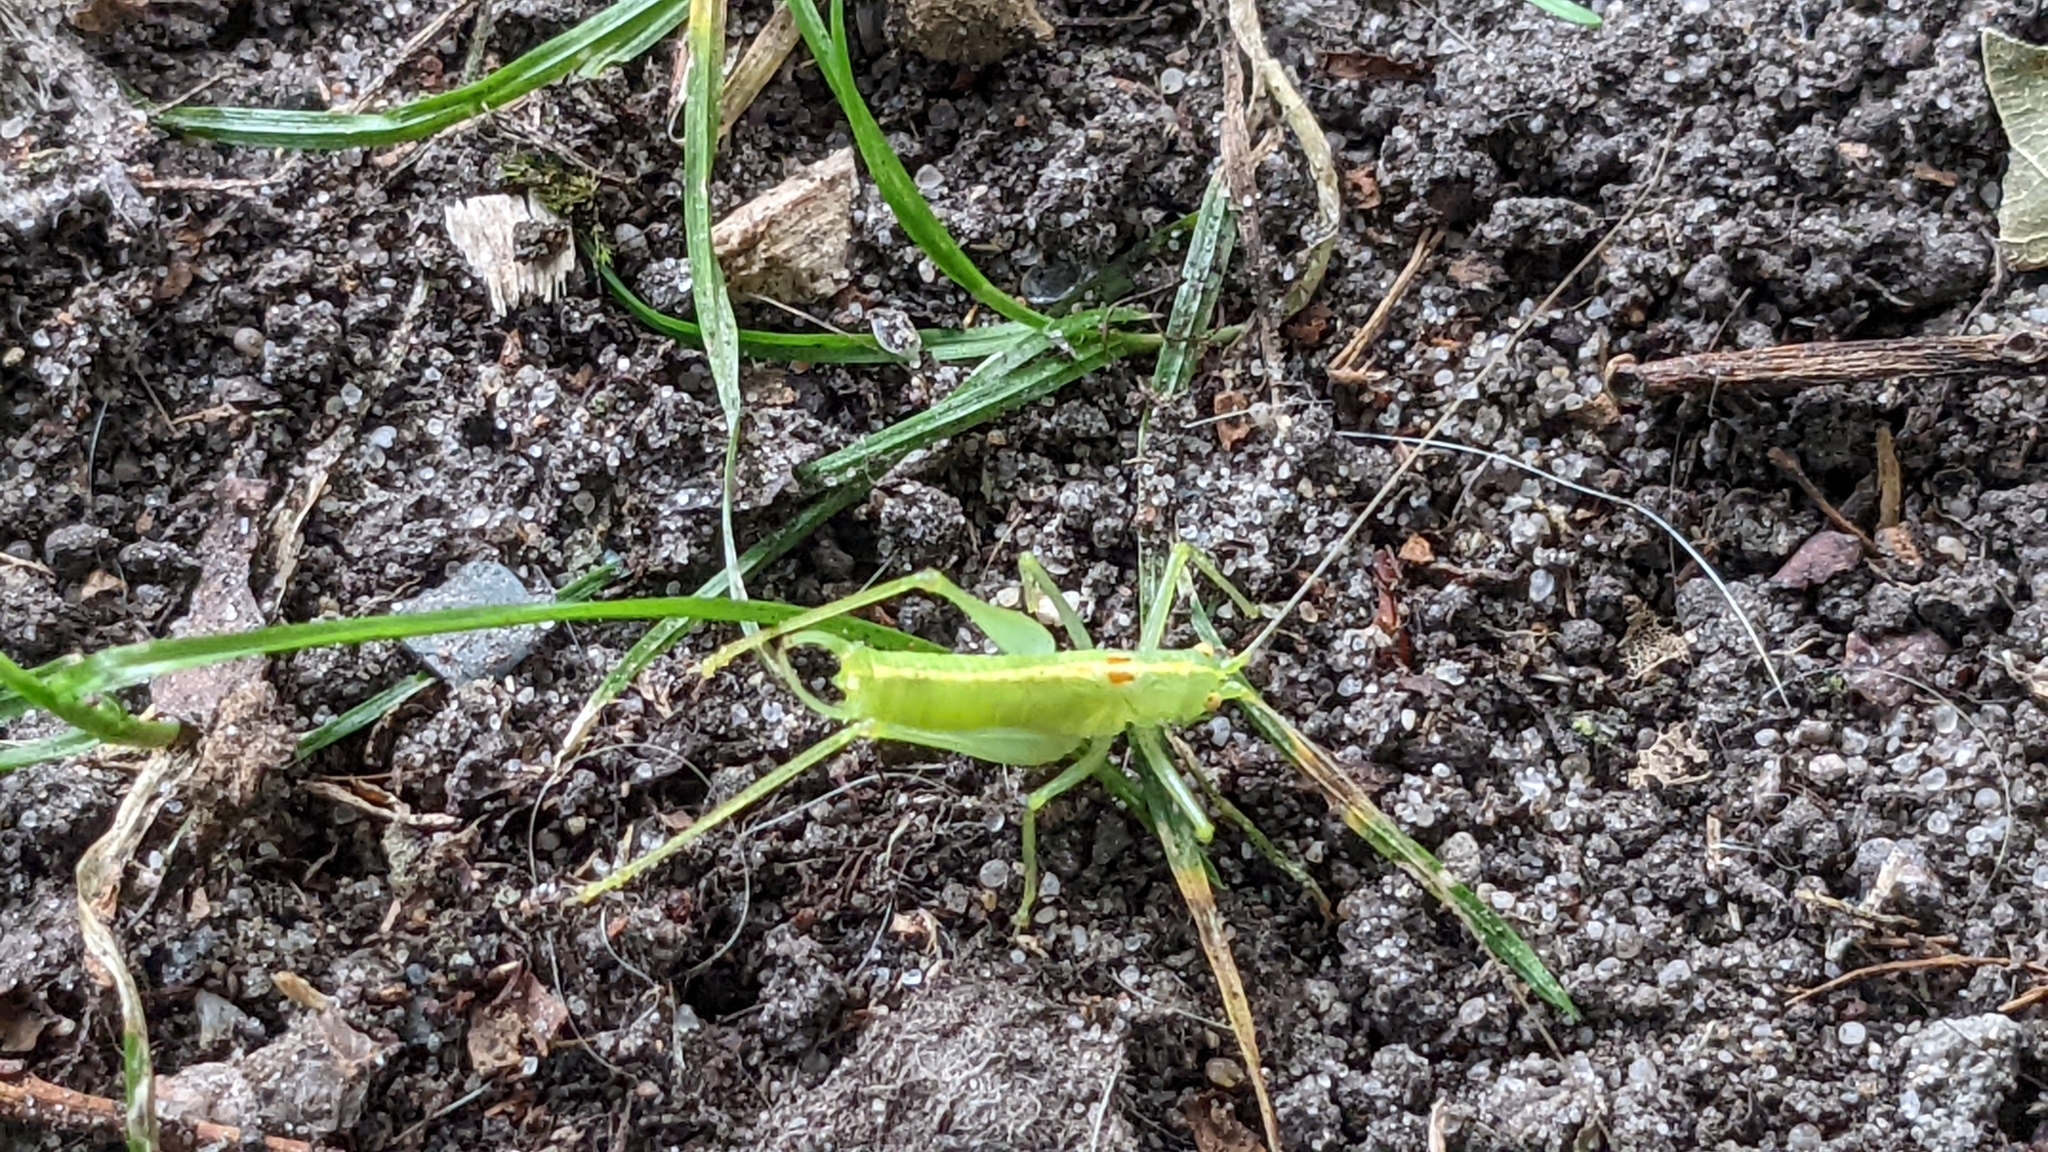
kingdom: Animalia
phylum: Arthropoda
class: Insecta
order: Orthoptera
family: Tettigoniidae
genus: Meconema
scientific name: Meconema meridionale
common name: Southern oak bush-cricket
